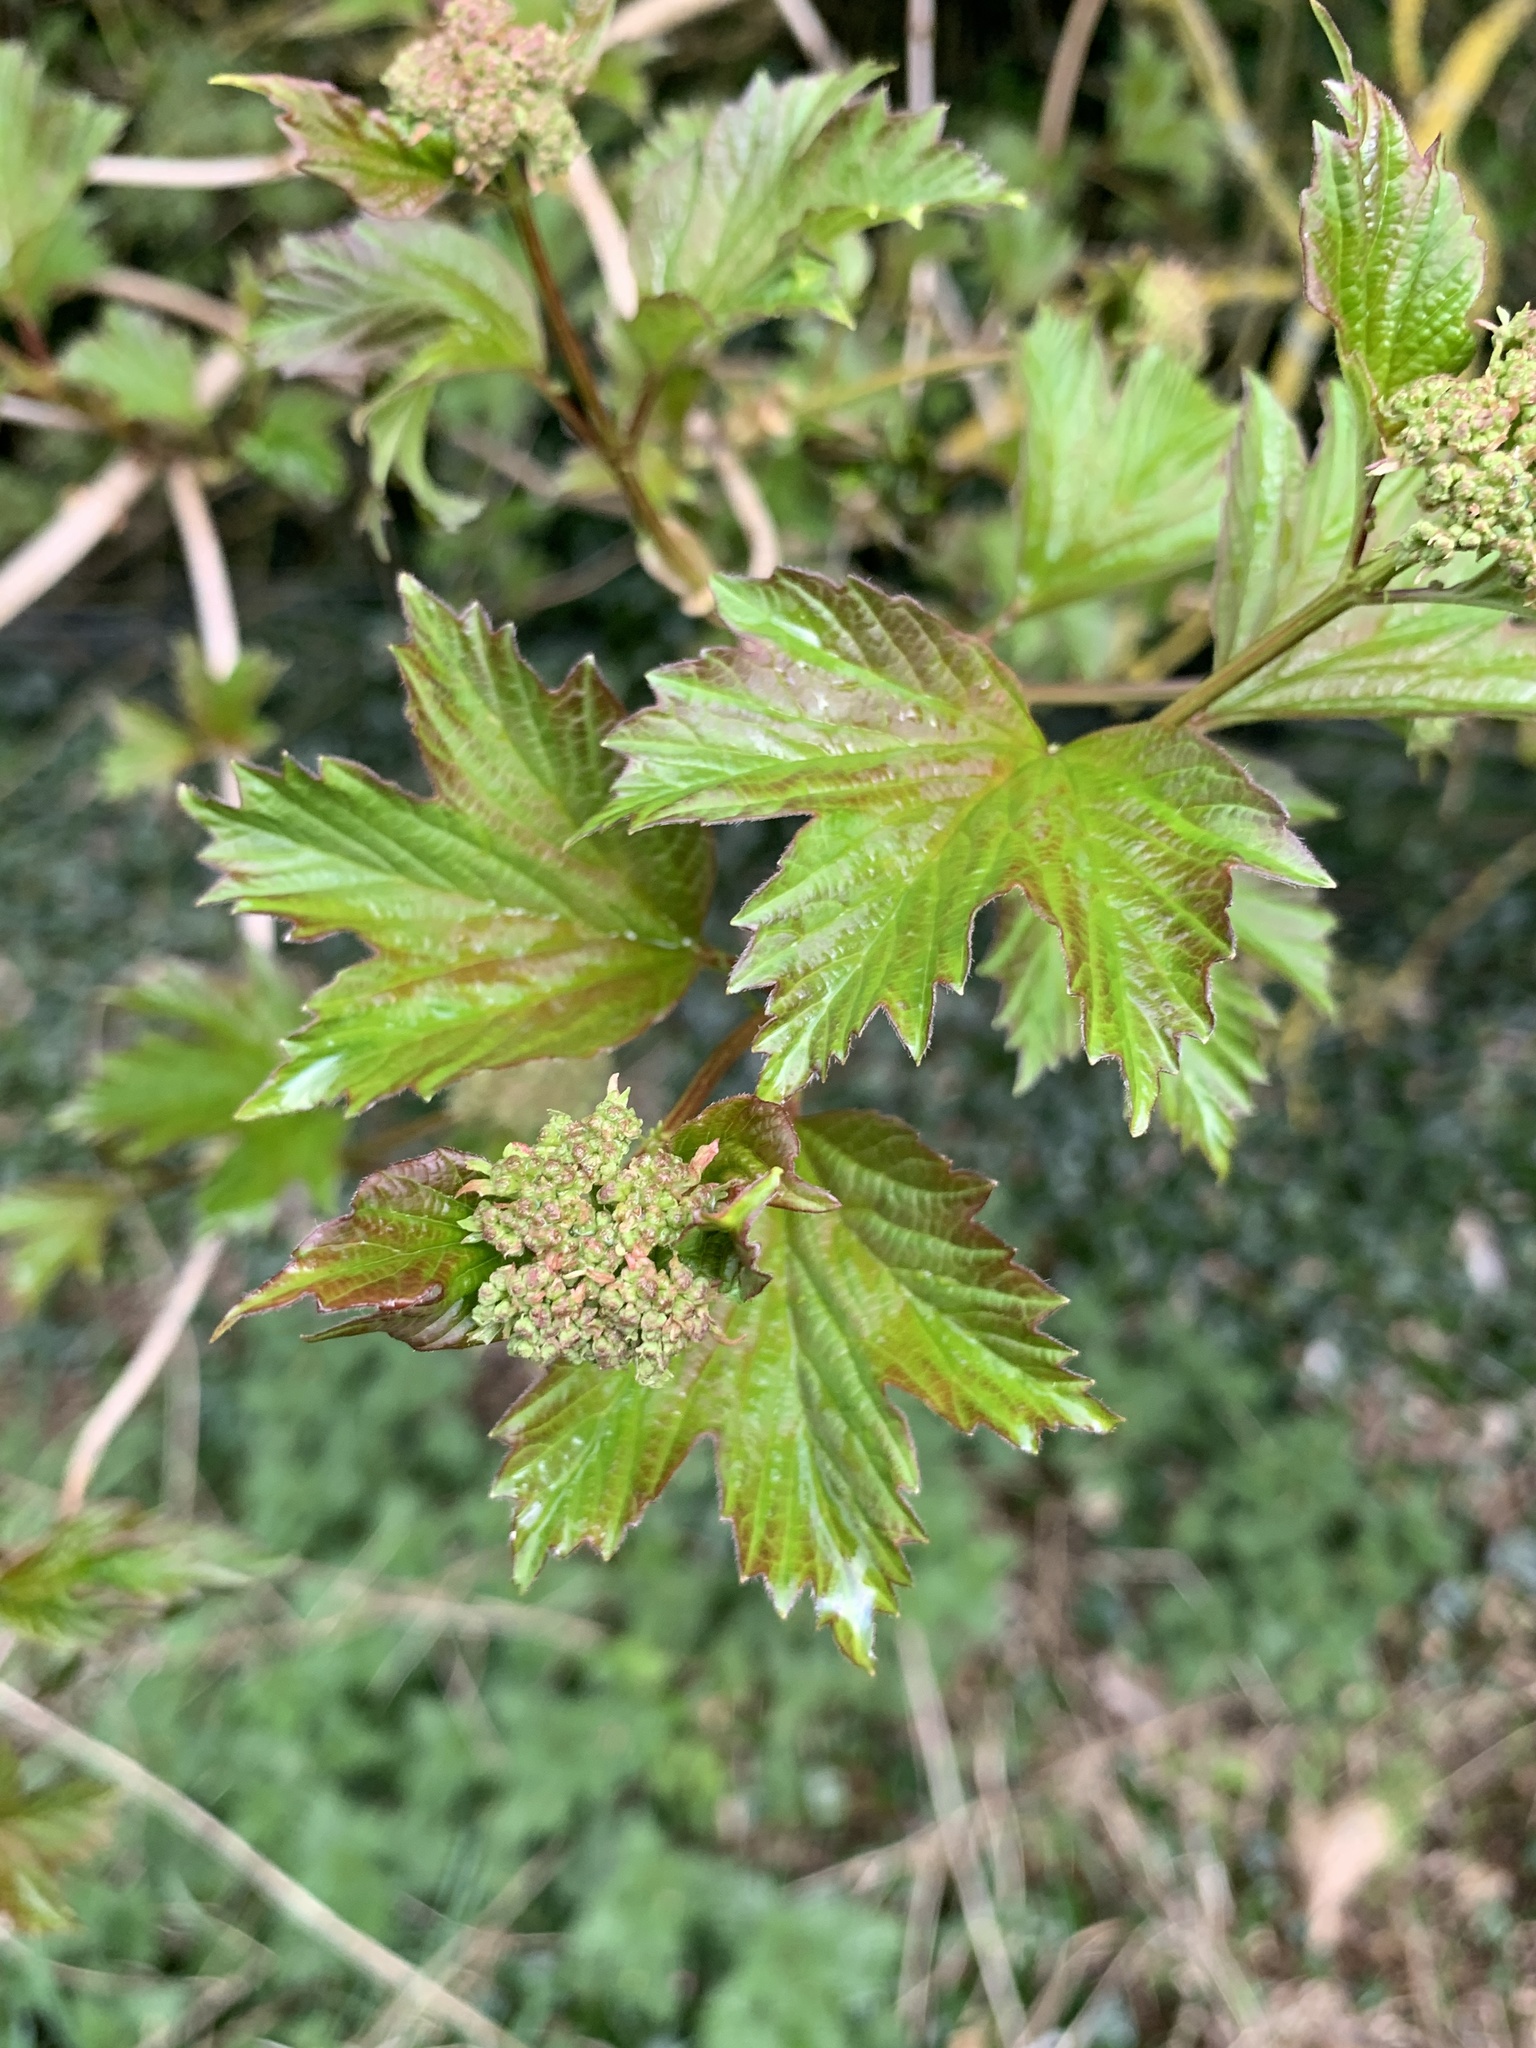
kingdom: Plantae
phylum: Tracheophyta
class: Magnoliopsida
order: Dipsacales
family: Viburnaceae
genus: Viburnum
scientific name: Viburnum opulus
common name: Guelder-rose
